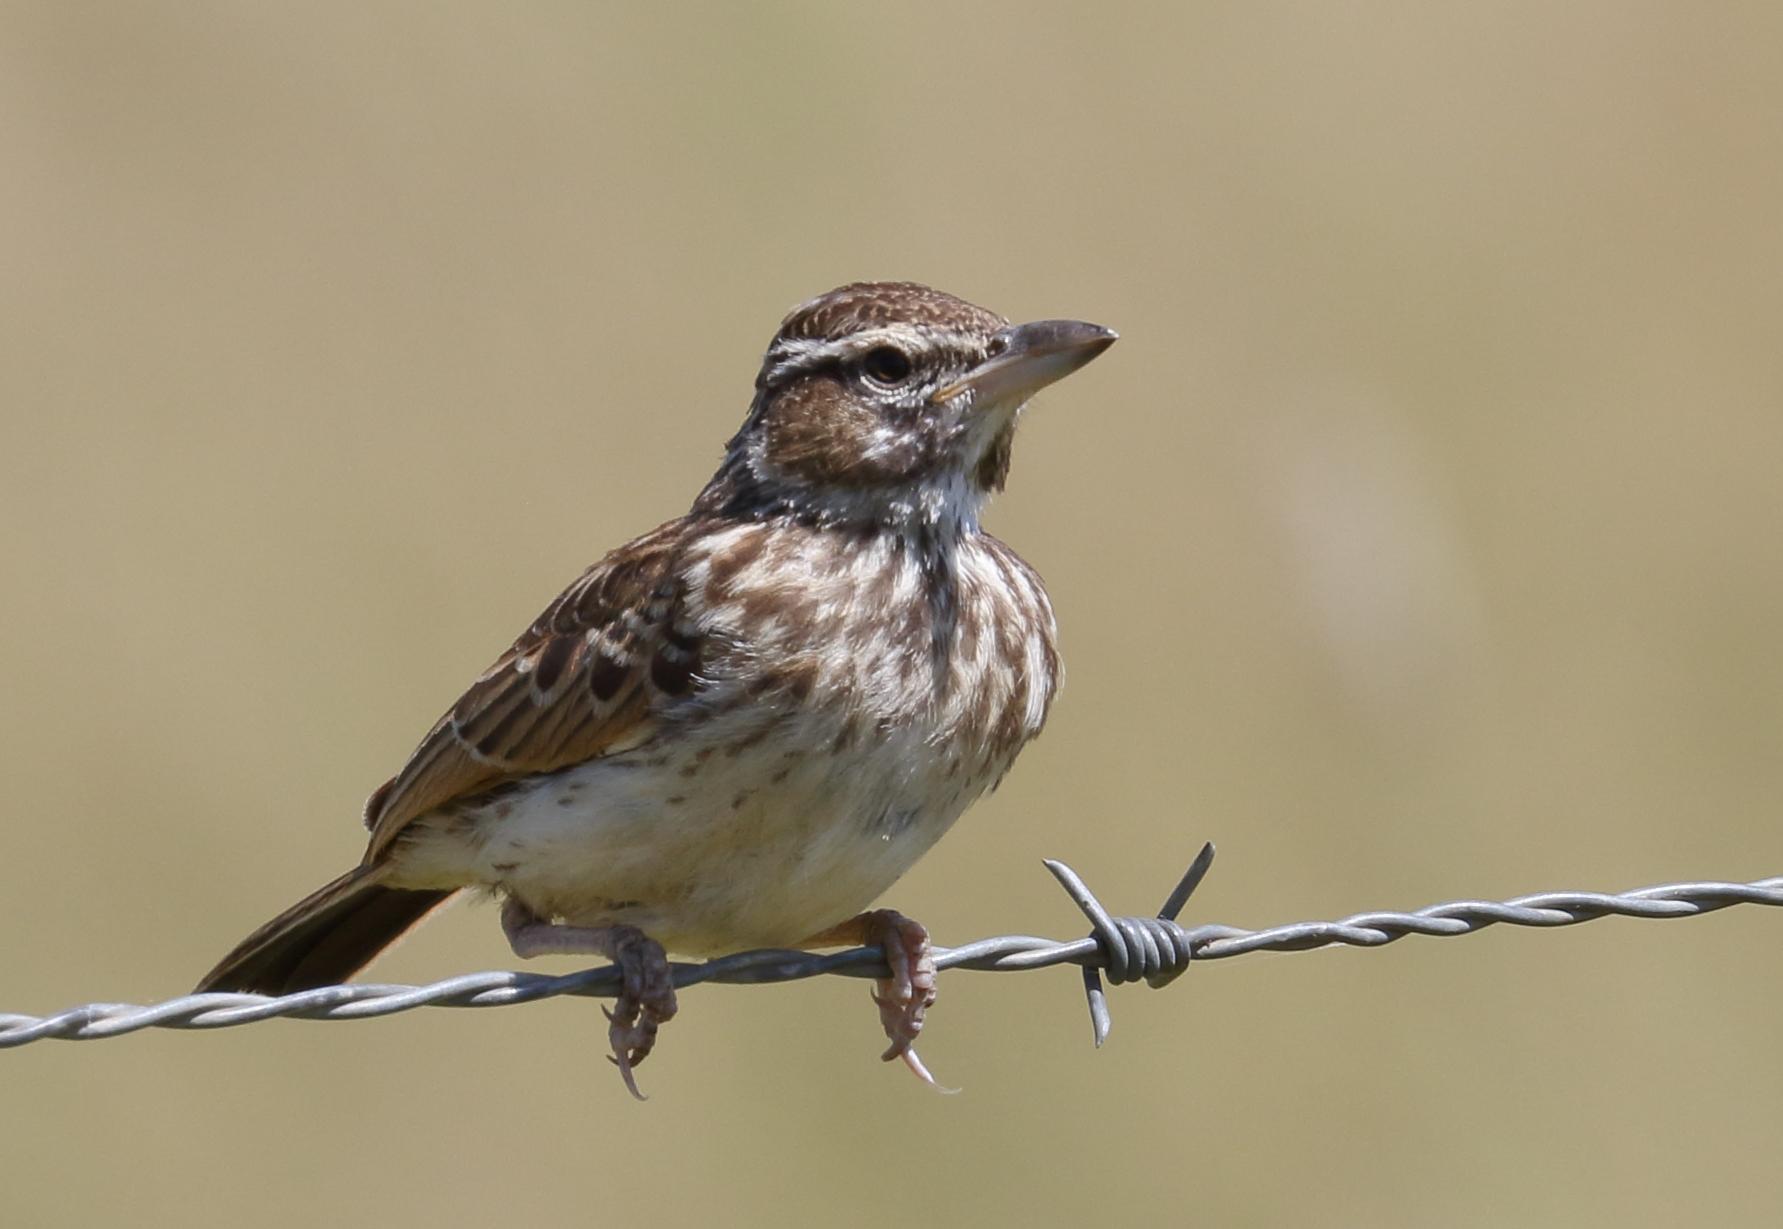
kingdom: Animalia
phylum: Chordata
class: Aves
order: Passeriformes
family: Alaudidae
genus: Calendulauda
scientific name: Calendulauda sabota
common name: Sabota lark
